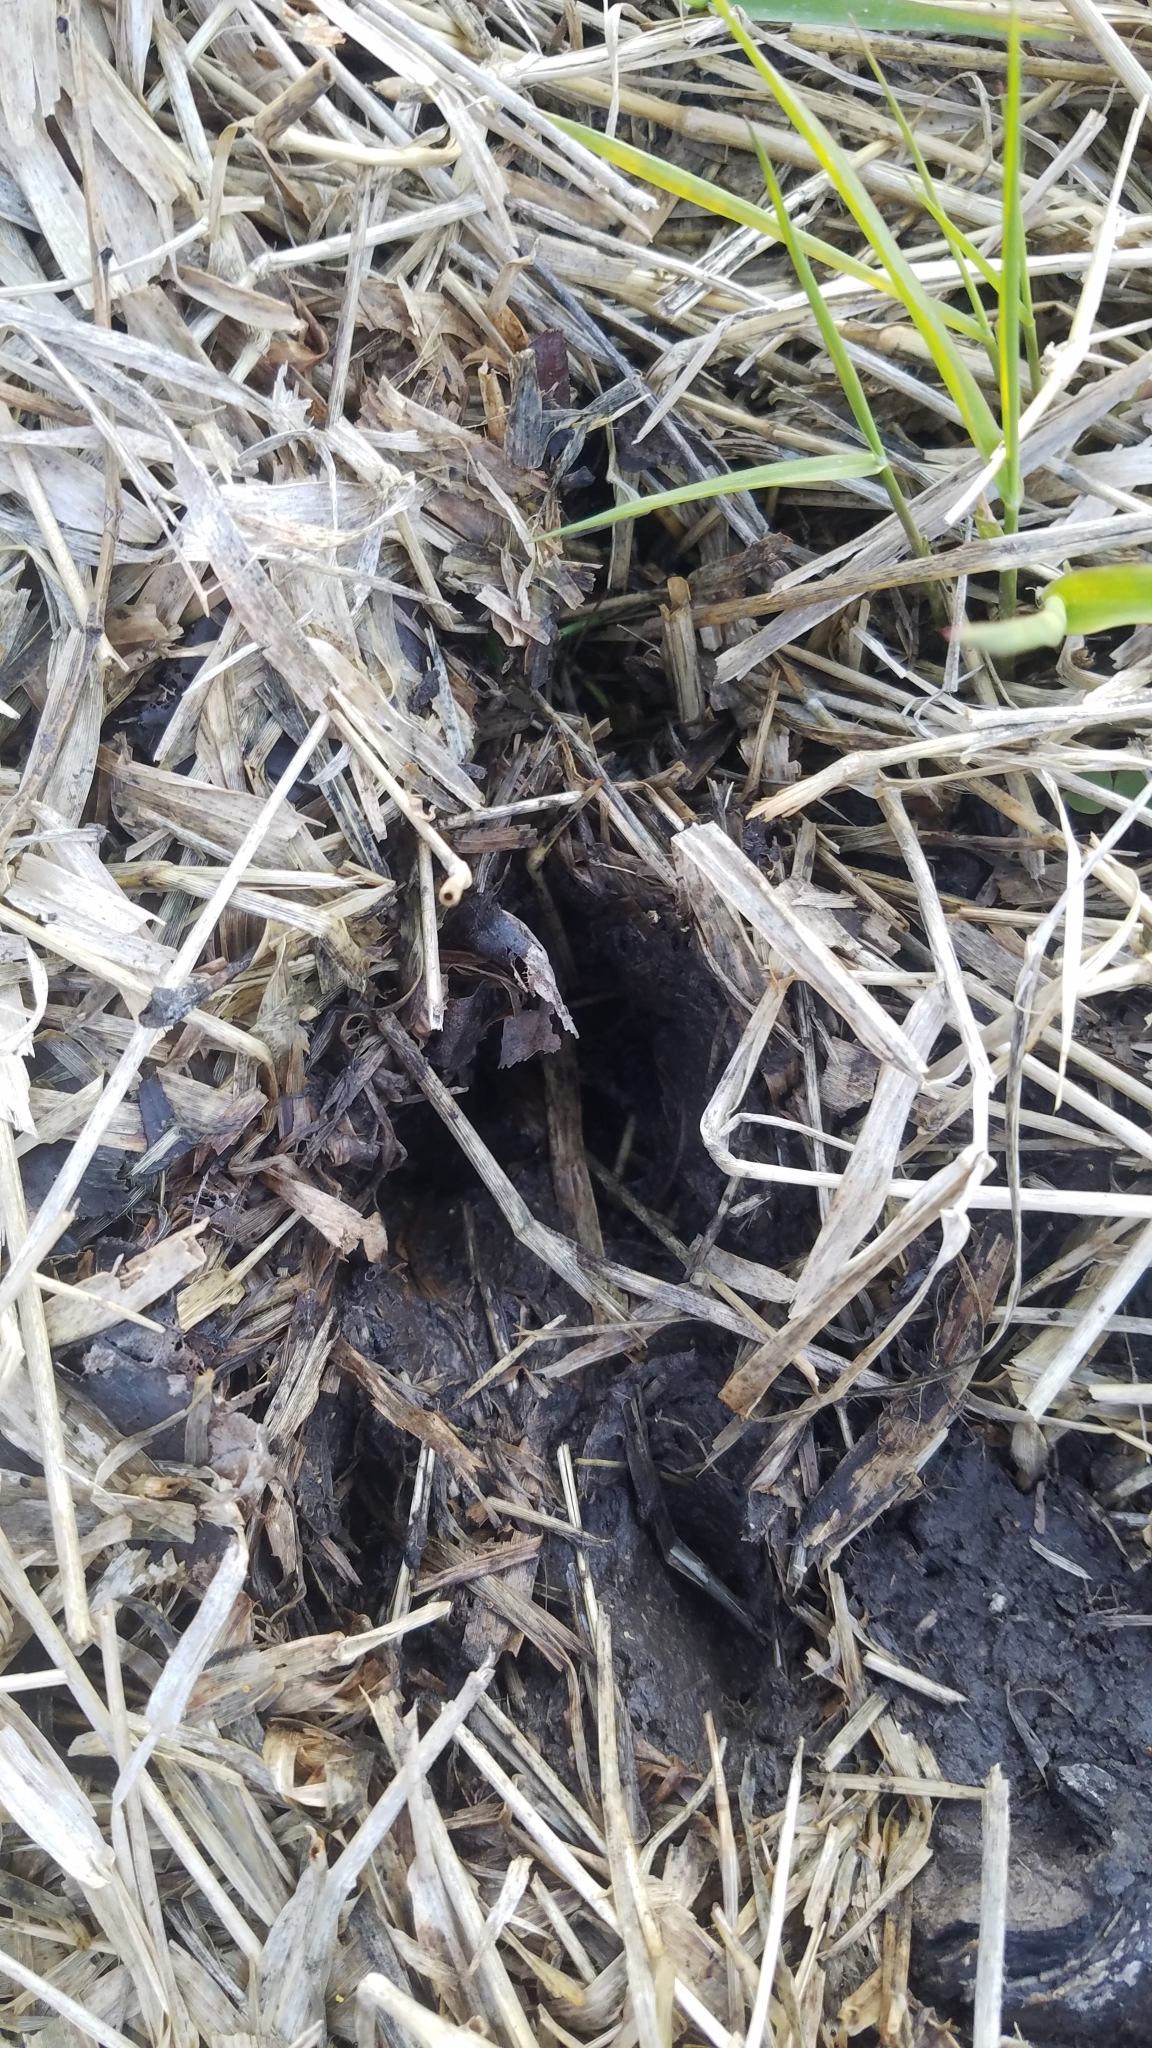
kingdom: Animalia
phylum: Chordata
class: Mammalia
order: Artiodactyla
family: Cervidae
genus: Odocoileus
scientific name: Odocoileus virginianus
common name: White-tailed deer
